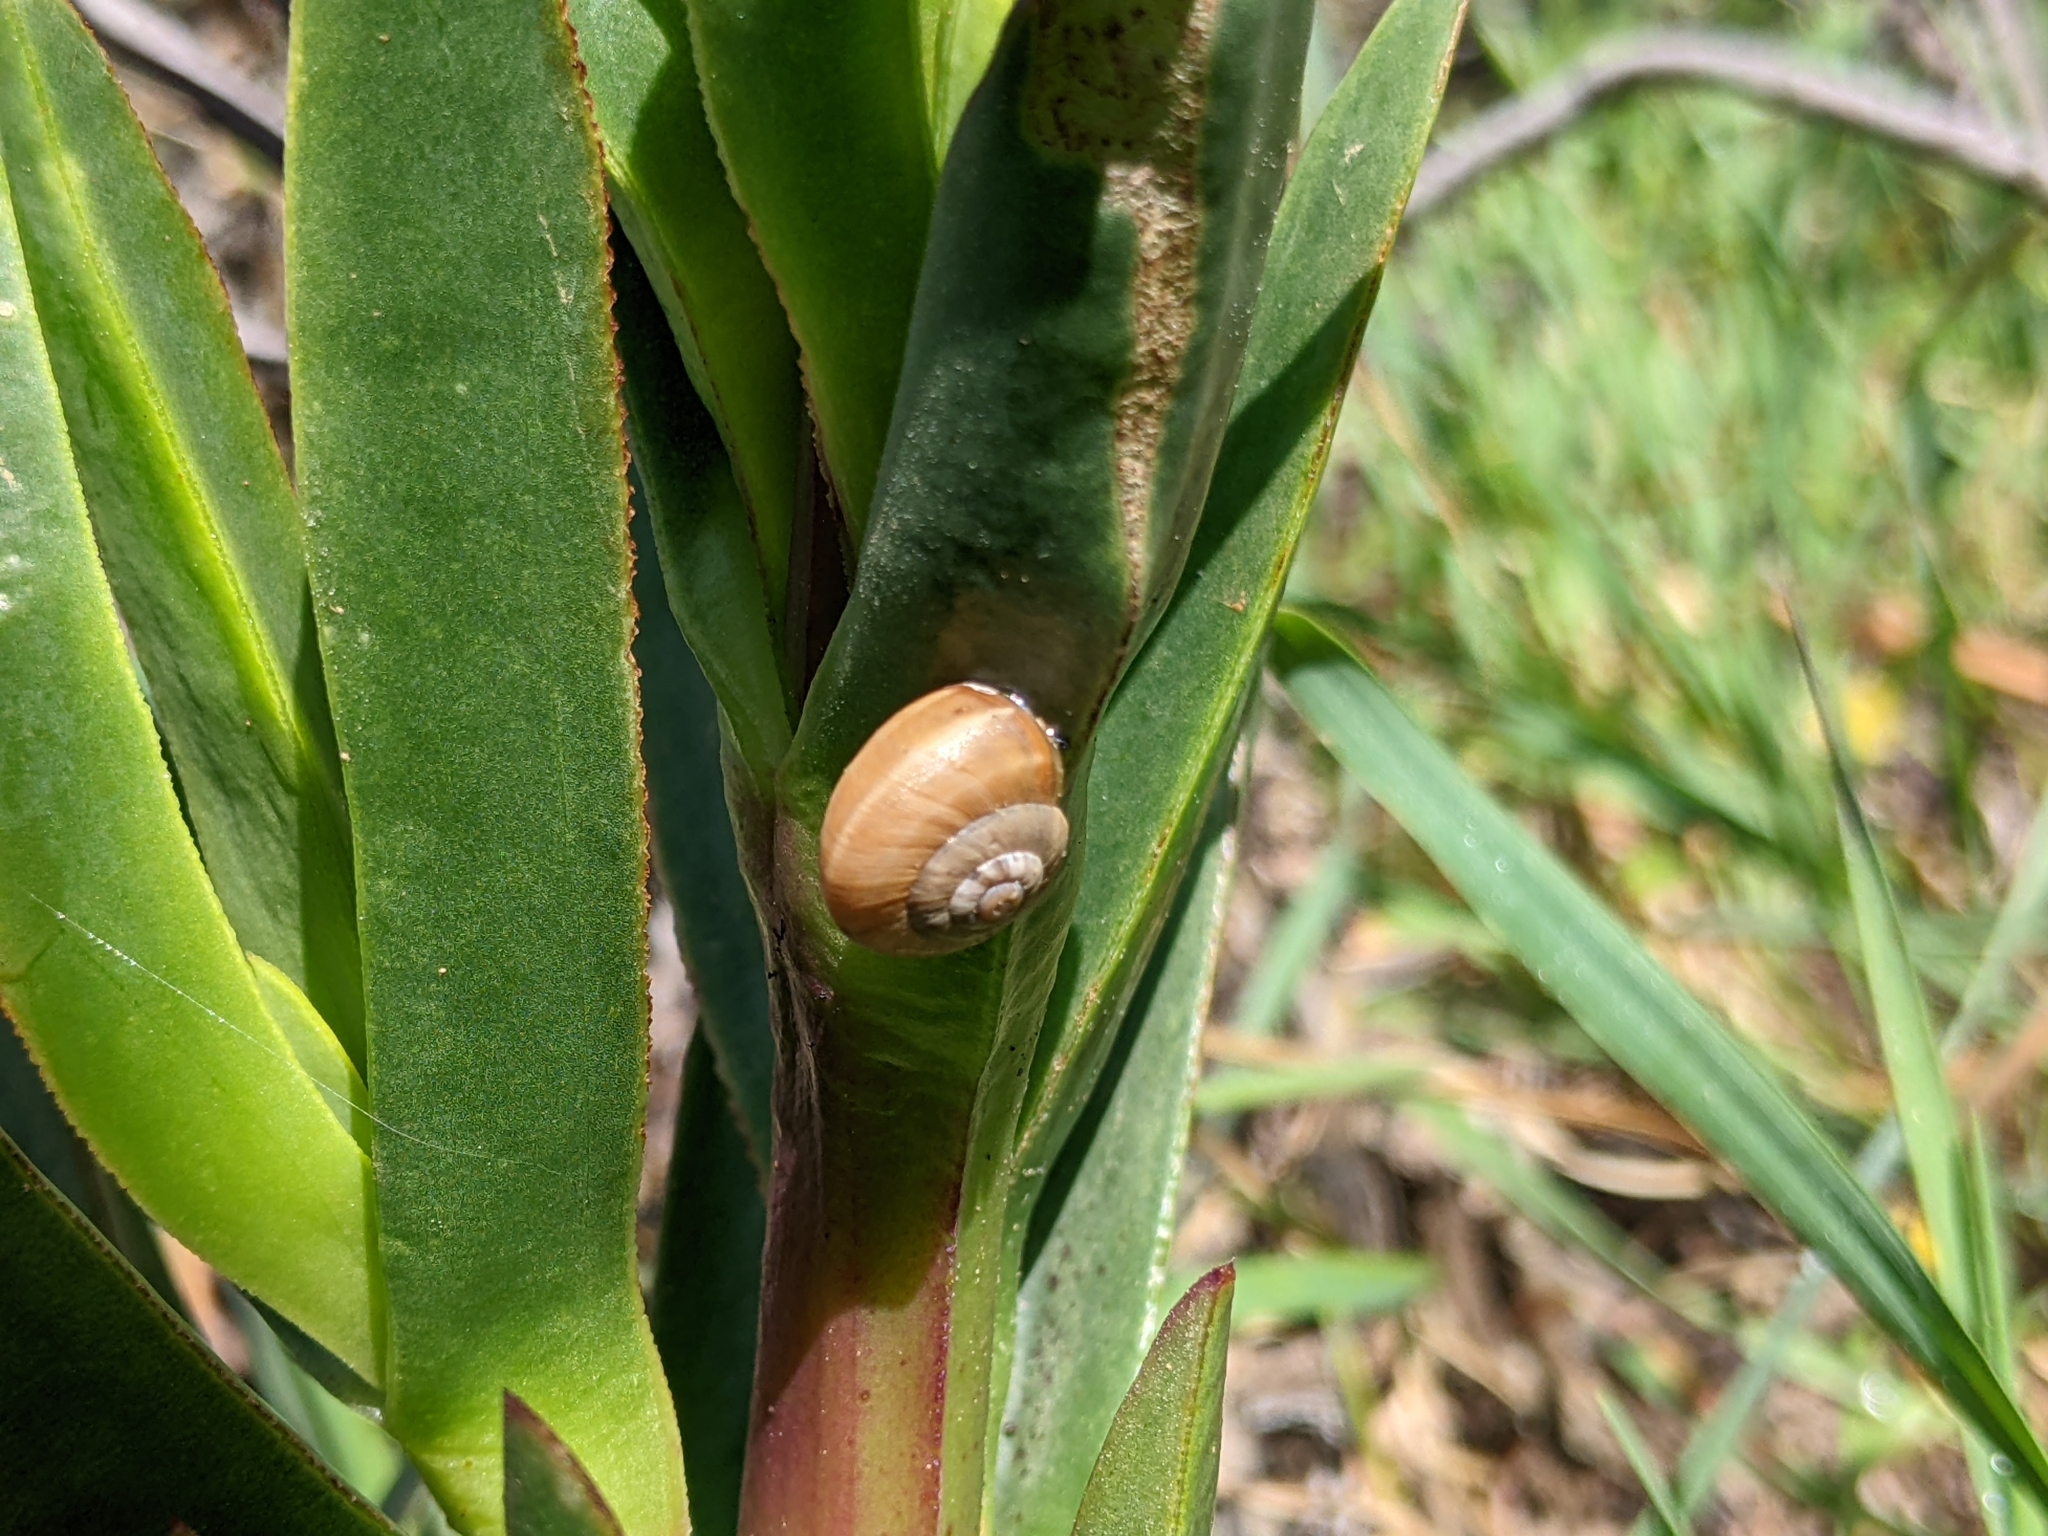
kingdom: Animalia
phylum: Mollusca
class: Gastropoda
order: Stylommatophora
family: Helicidae
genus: Theba
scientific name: Theba pisana
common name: White snail
